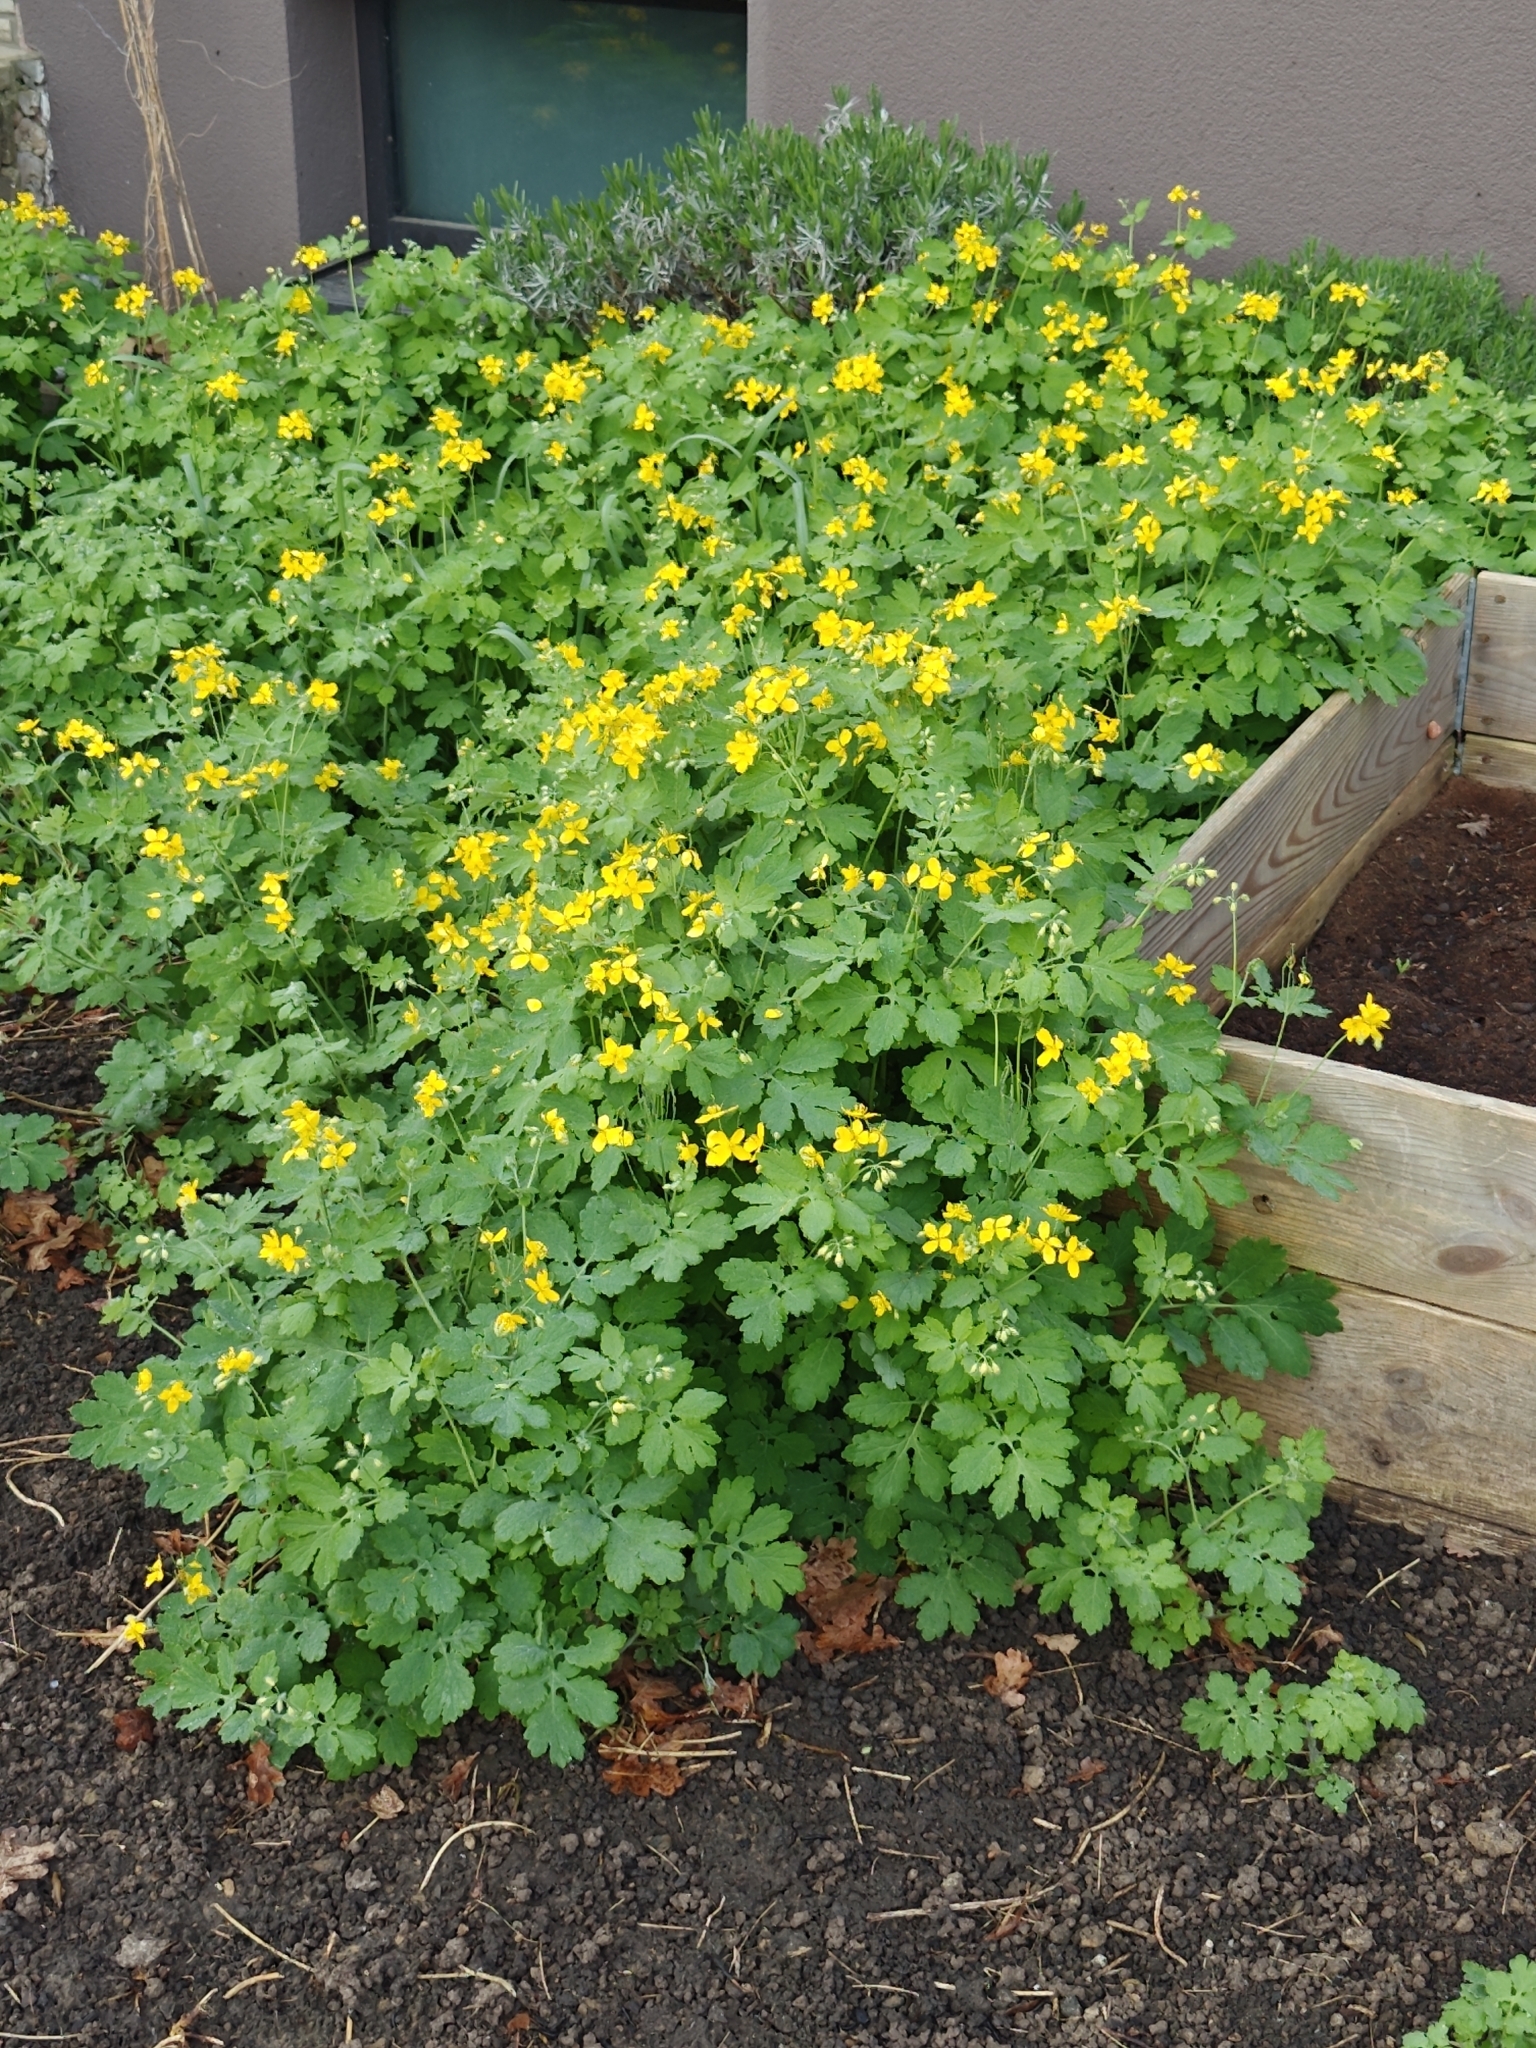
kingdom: Plantae
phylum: Tracheophyta
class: Magnoliopsida
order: Ranunculales
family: Papaveraceae
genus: Chelidonium
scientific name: Chelidonium majus
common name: Greater celandine
